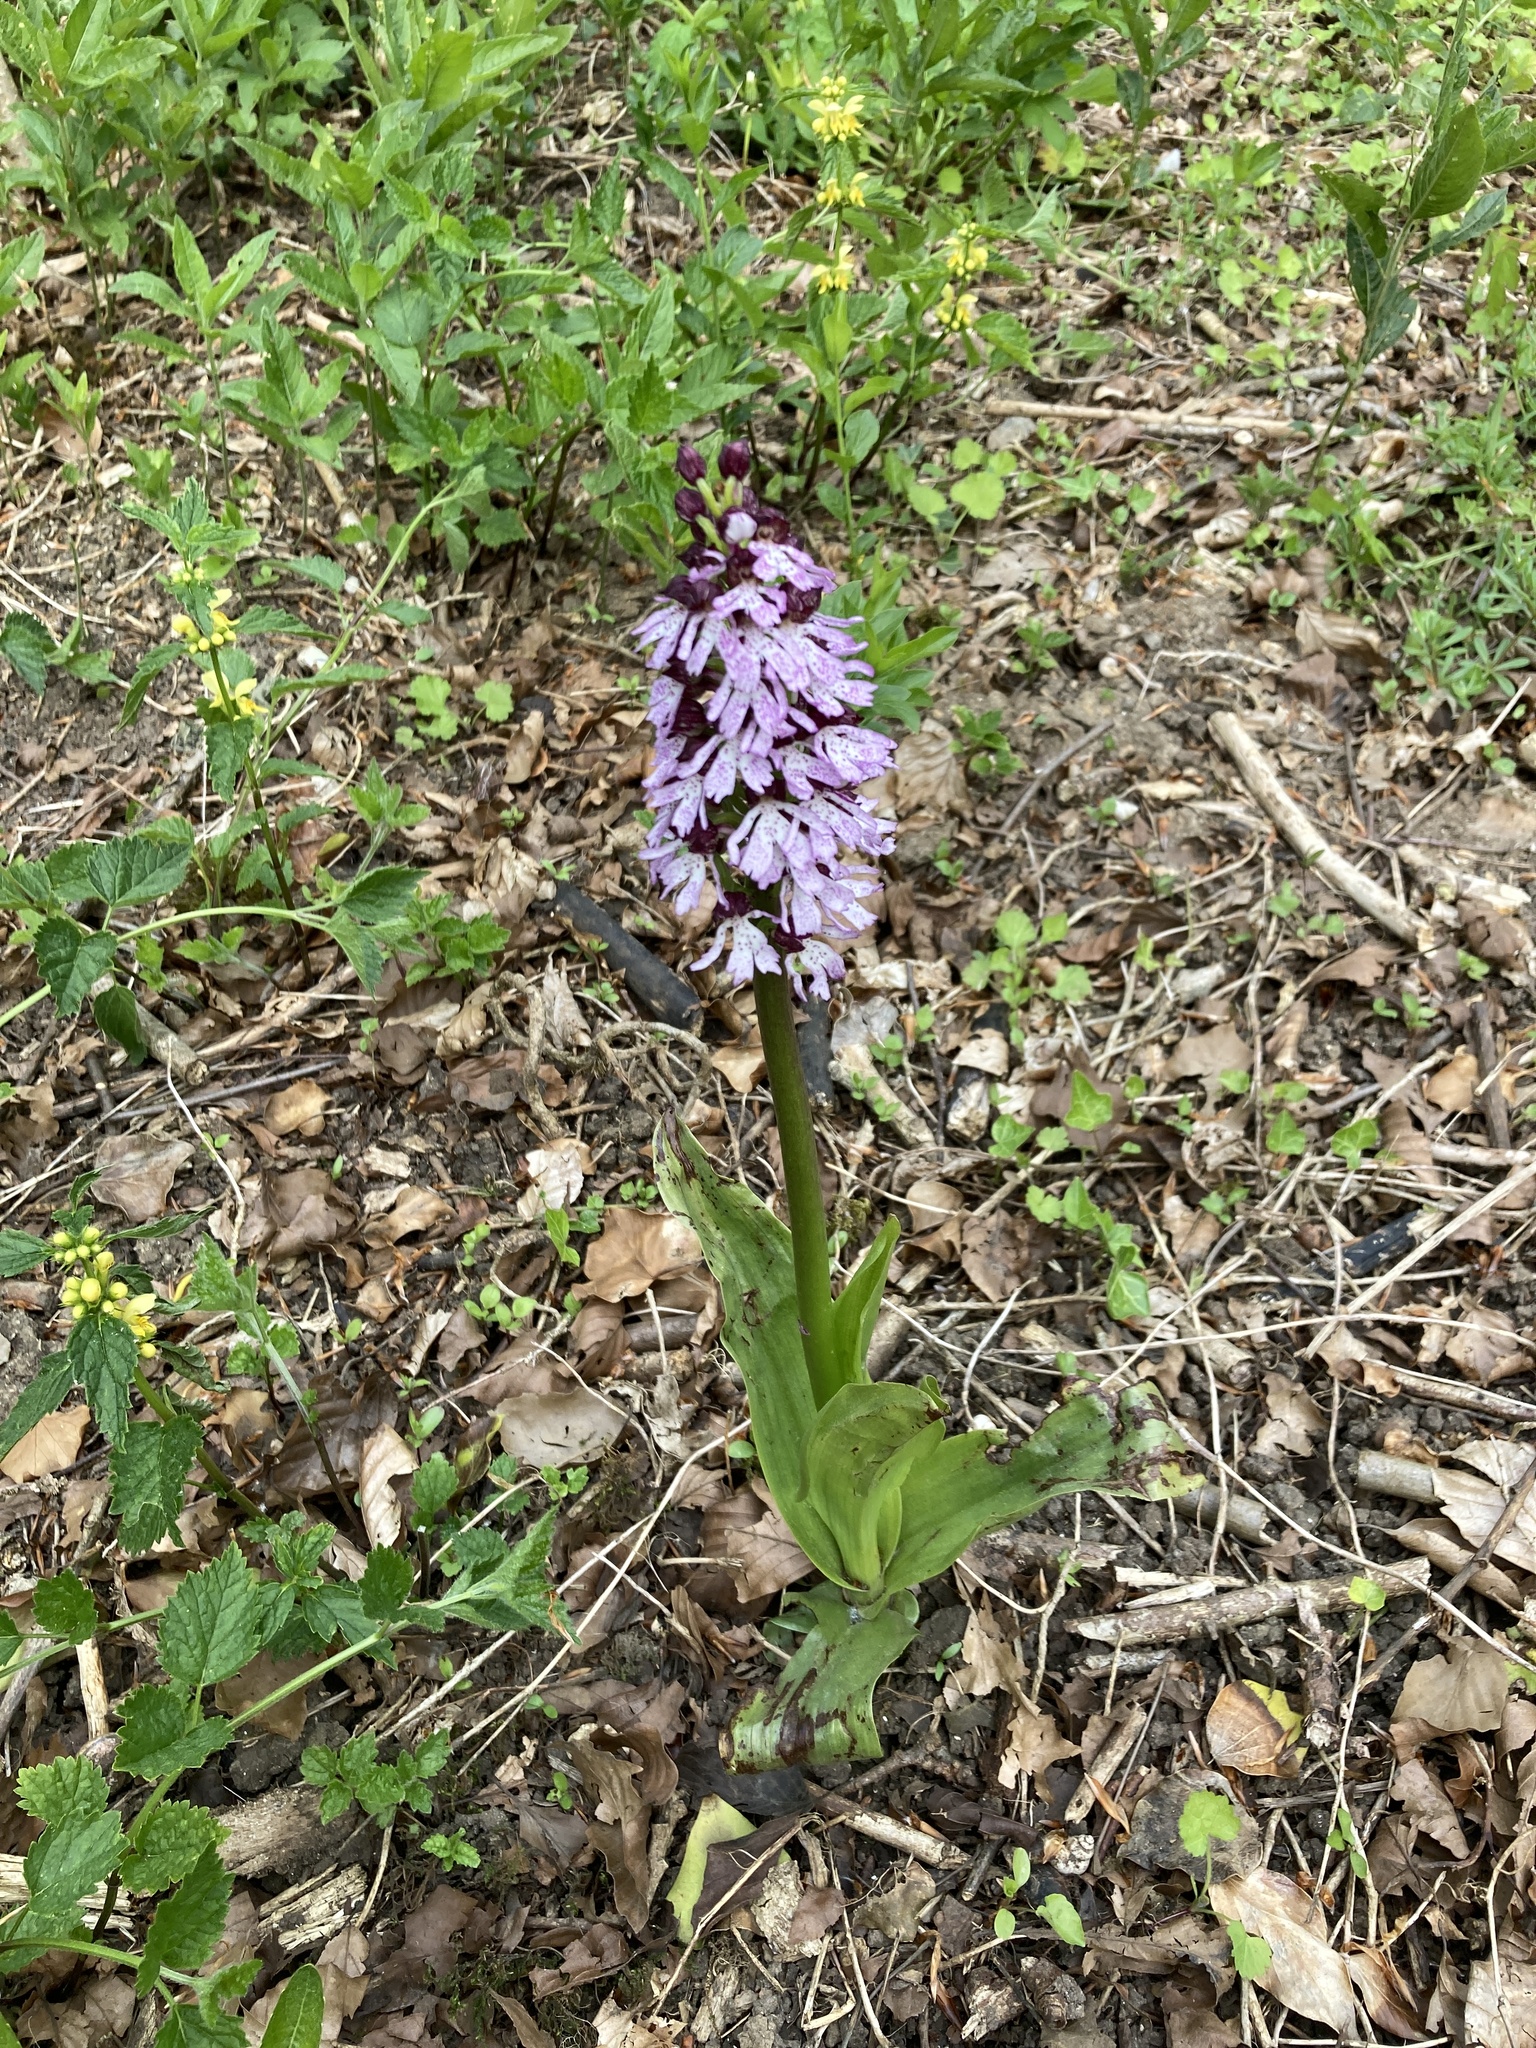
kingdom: Plantae
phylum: Tracheophyta
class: Liliopsida
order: Asparagales
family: Orchidaceae
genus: Orchis
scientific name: Orchis purpurea
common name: Lady orchid
